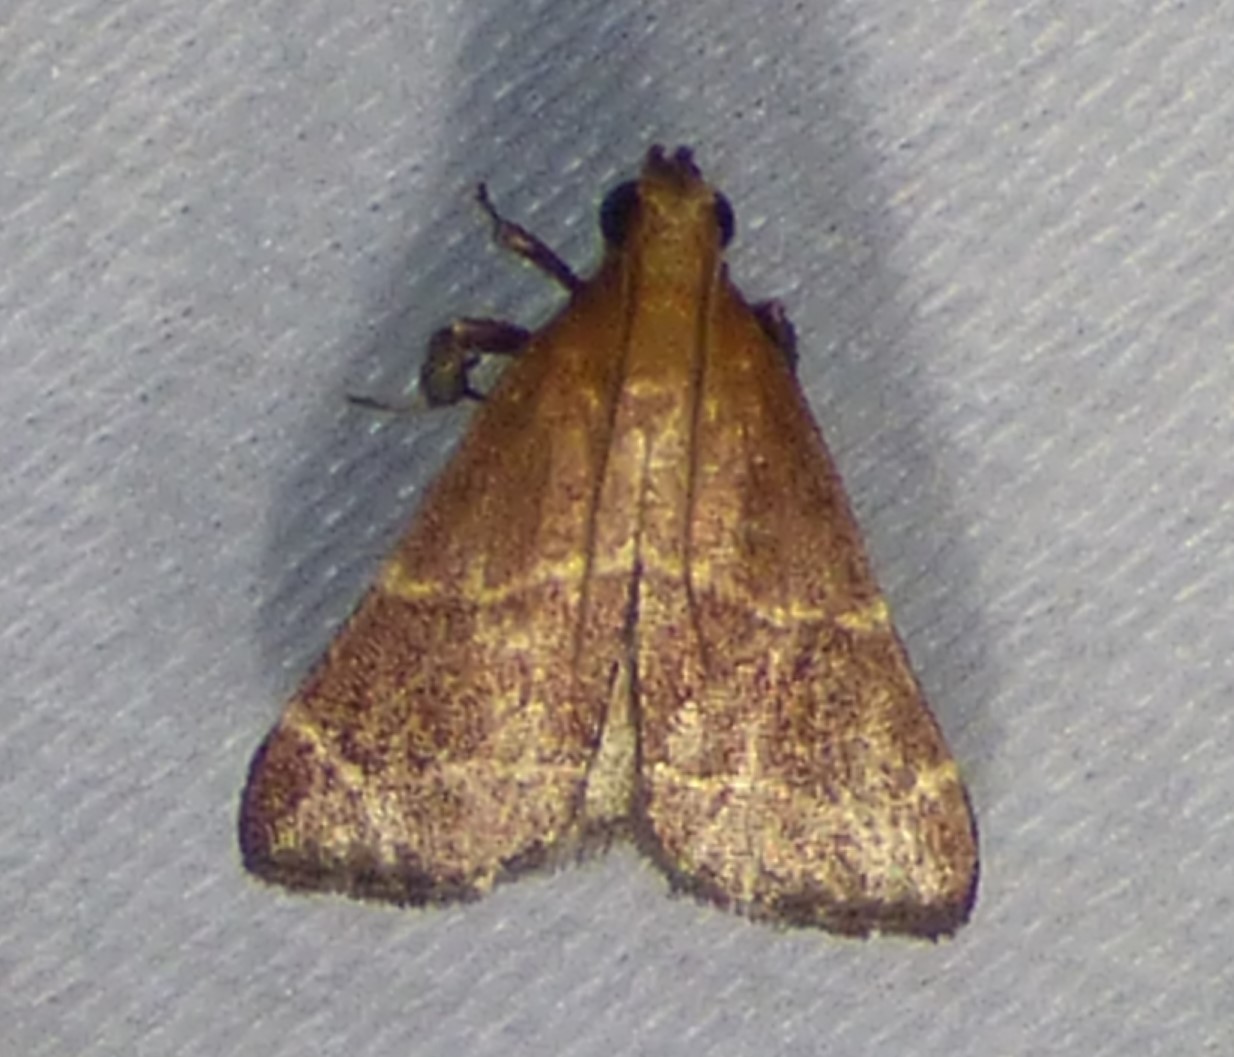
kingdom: Animalia
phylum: Arthropoda
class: Insecta
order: Lepidoptera
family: Pyralidae
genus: Arta
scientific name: Arta statalis
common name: Posturing arta moth
